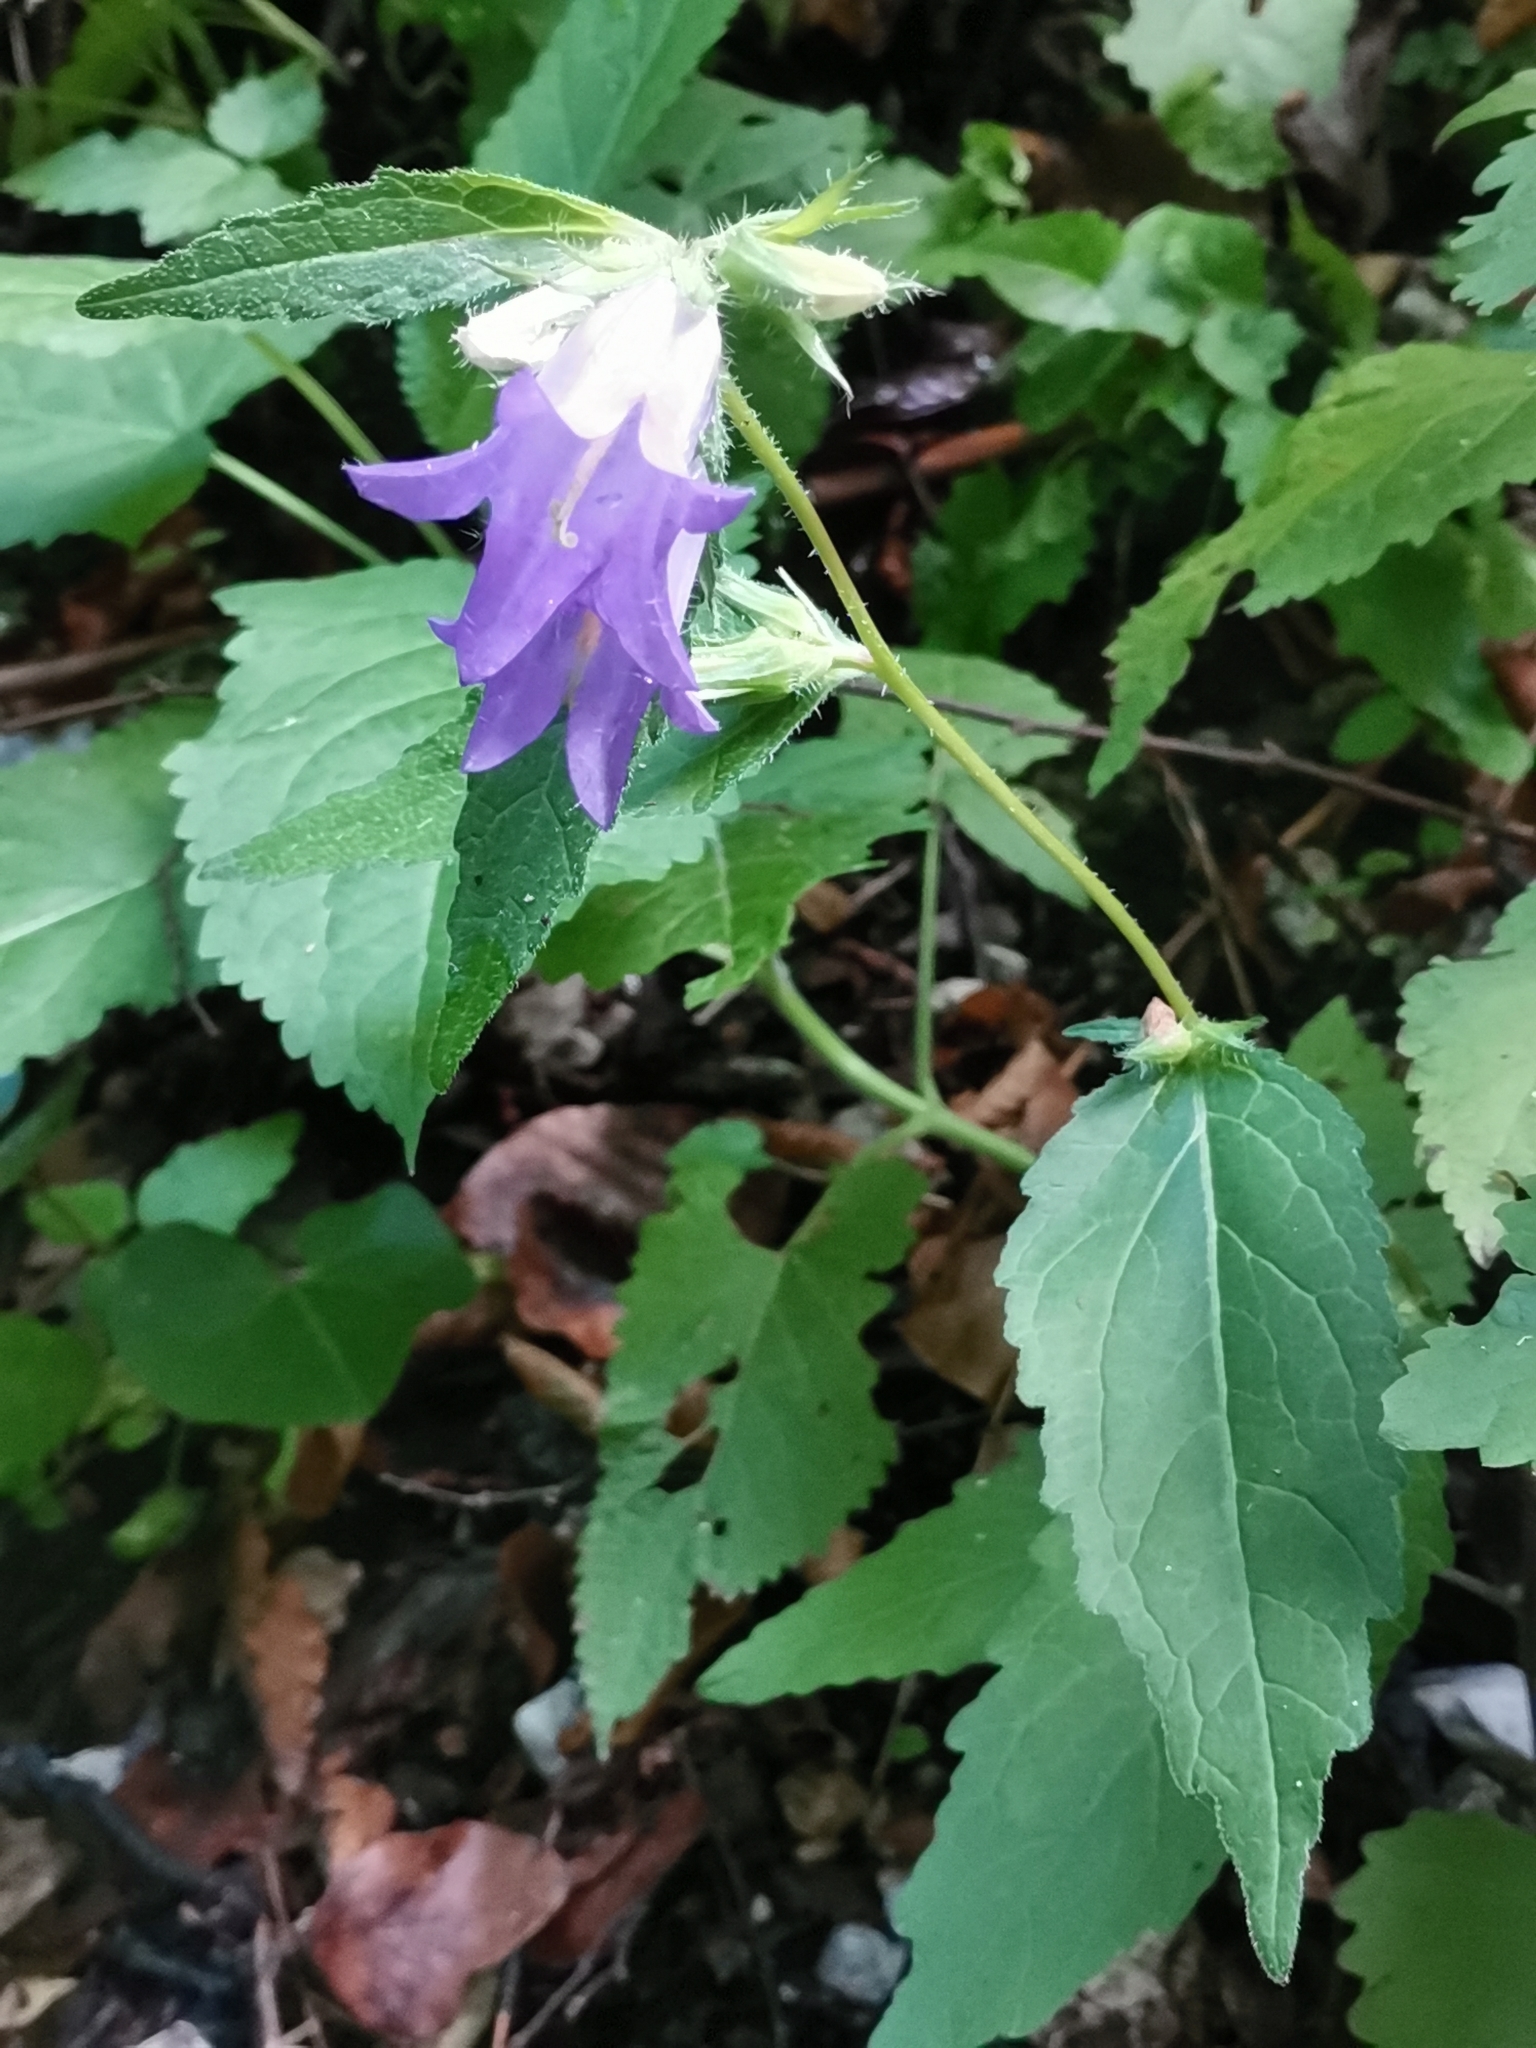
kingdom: Plantae
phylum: Tracheophyta
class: Magnoliopsida
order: Asterales
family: Campanulaceae
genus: Campanula
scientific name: Campanula trachelium
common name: Nettle-leaved bellflower
